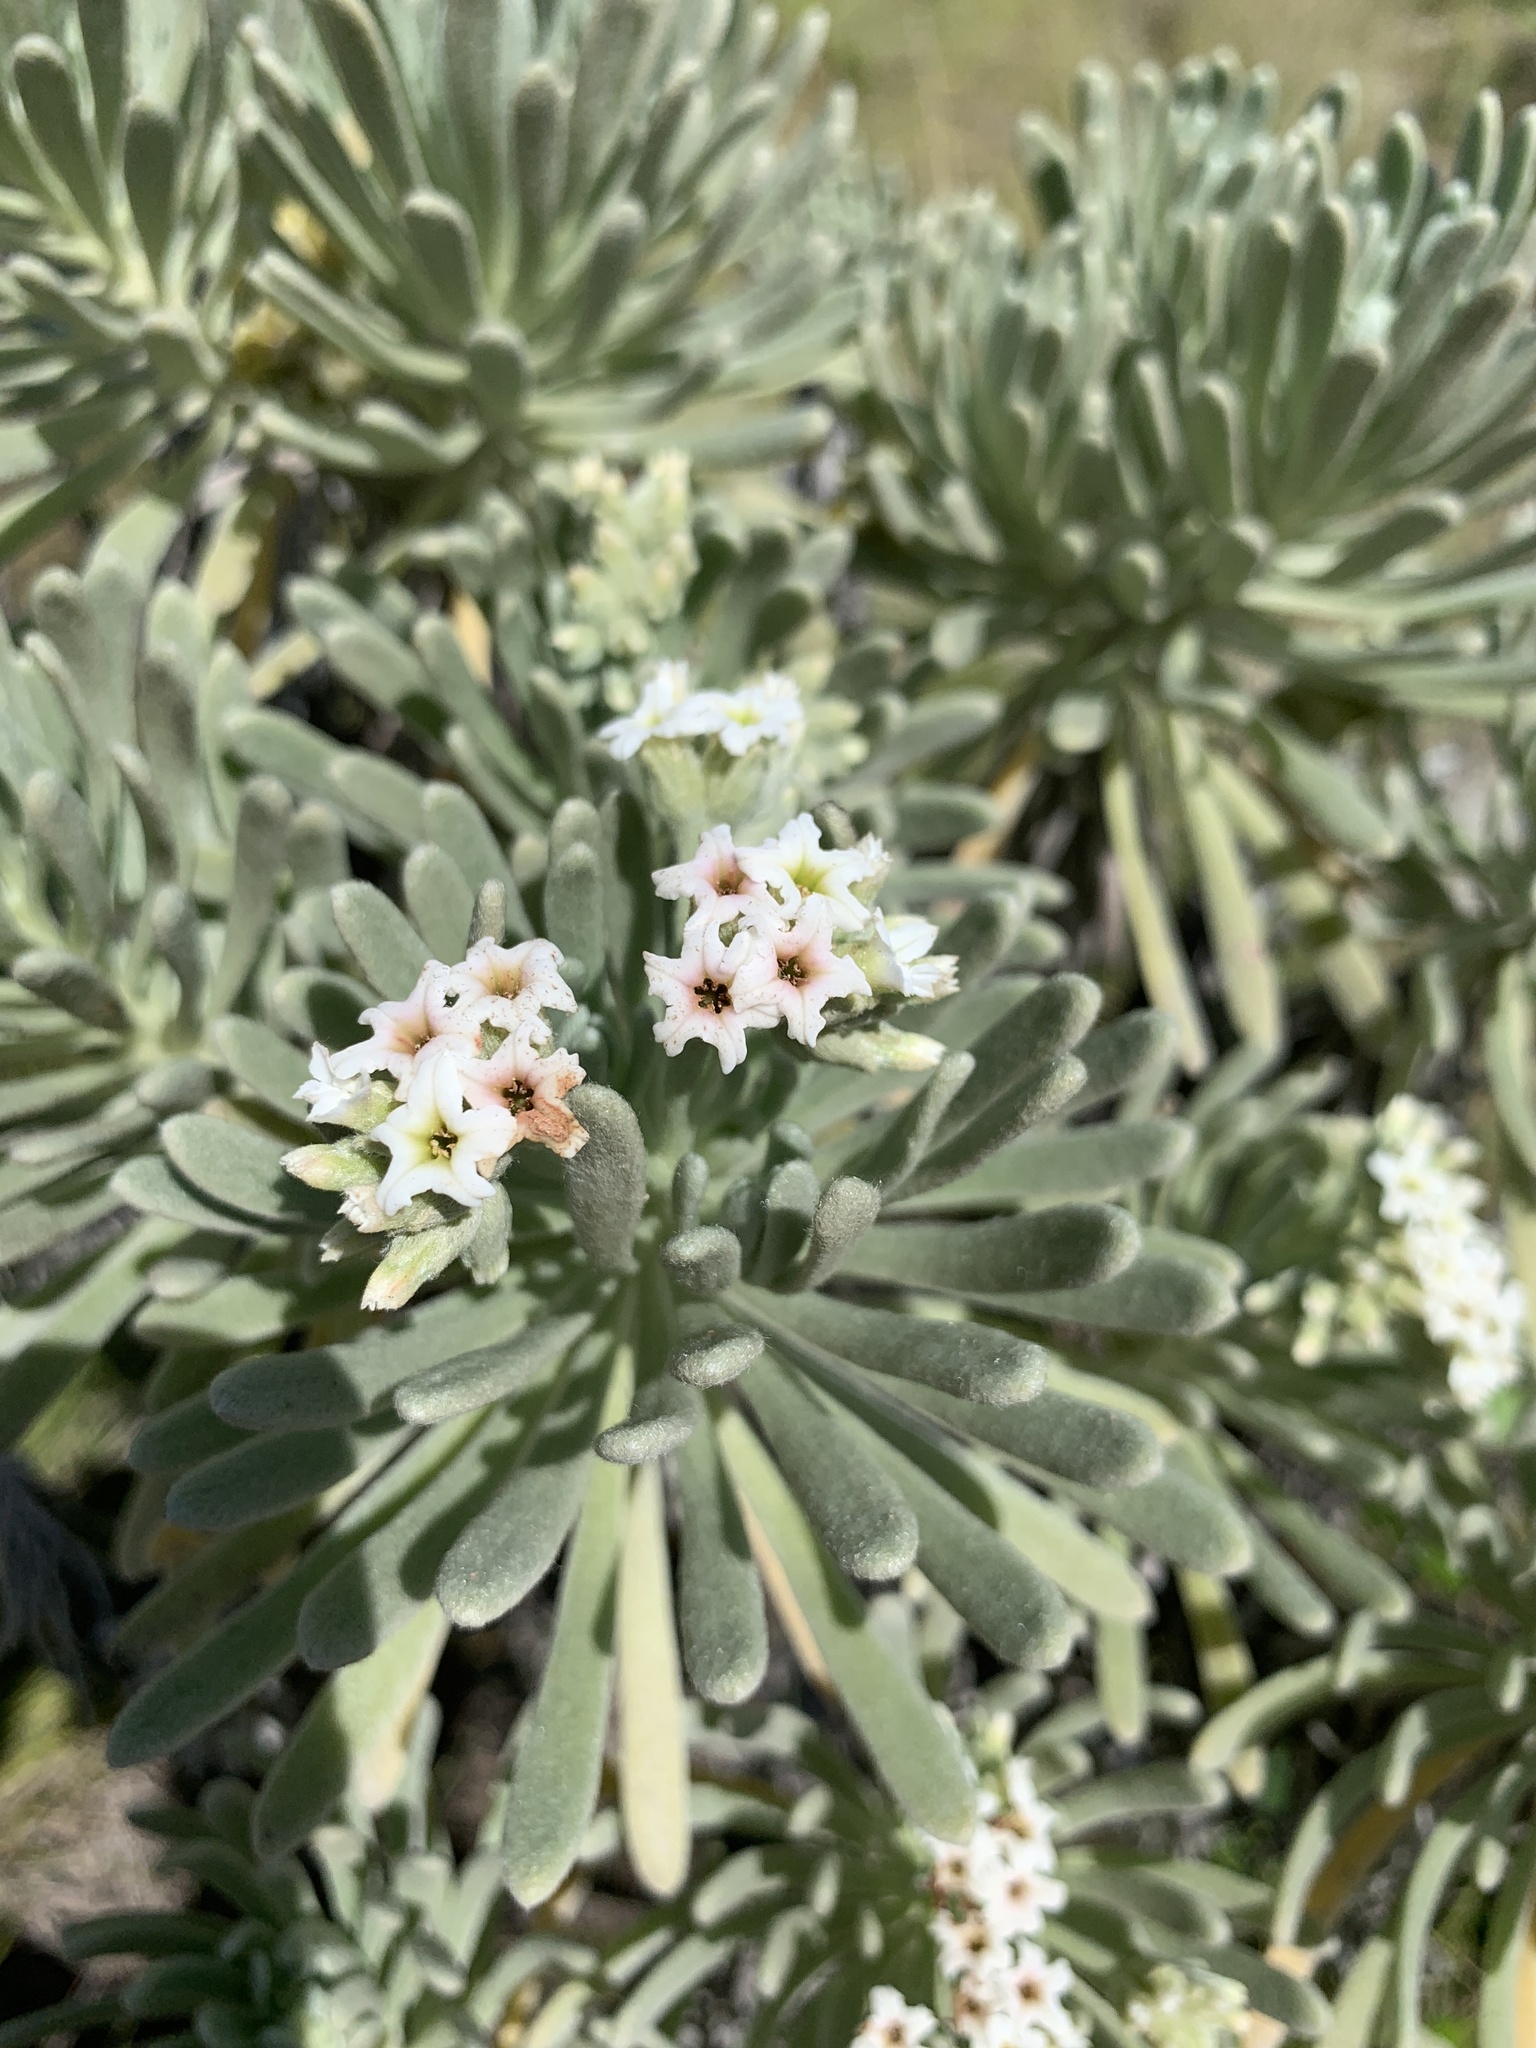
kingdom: Plantae
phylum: Tracheophyta
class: Magnoliopsida
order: Boraginales
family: Heliotropiaceae
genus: Tournefortia
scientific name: Tournefortia gnaphalodes
